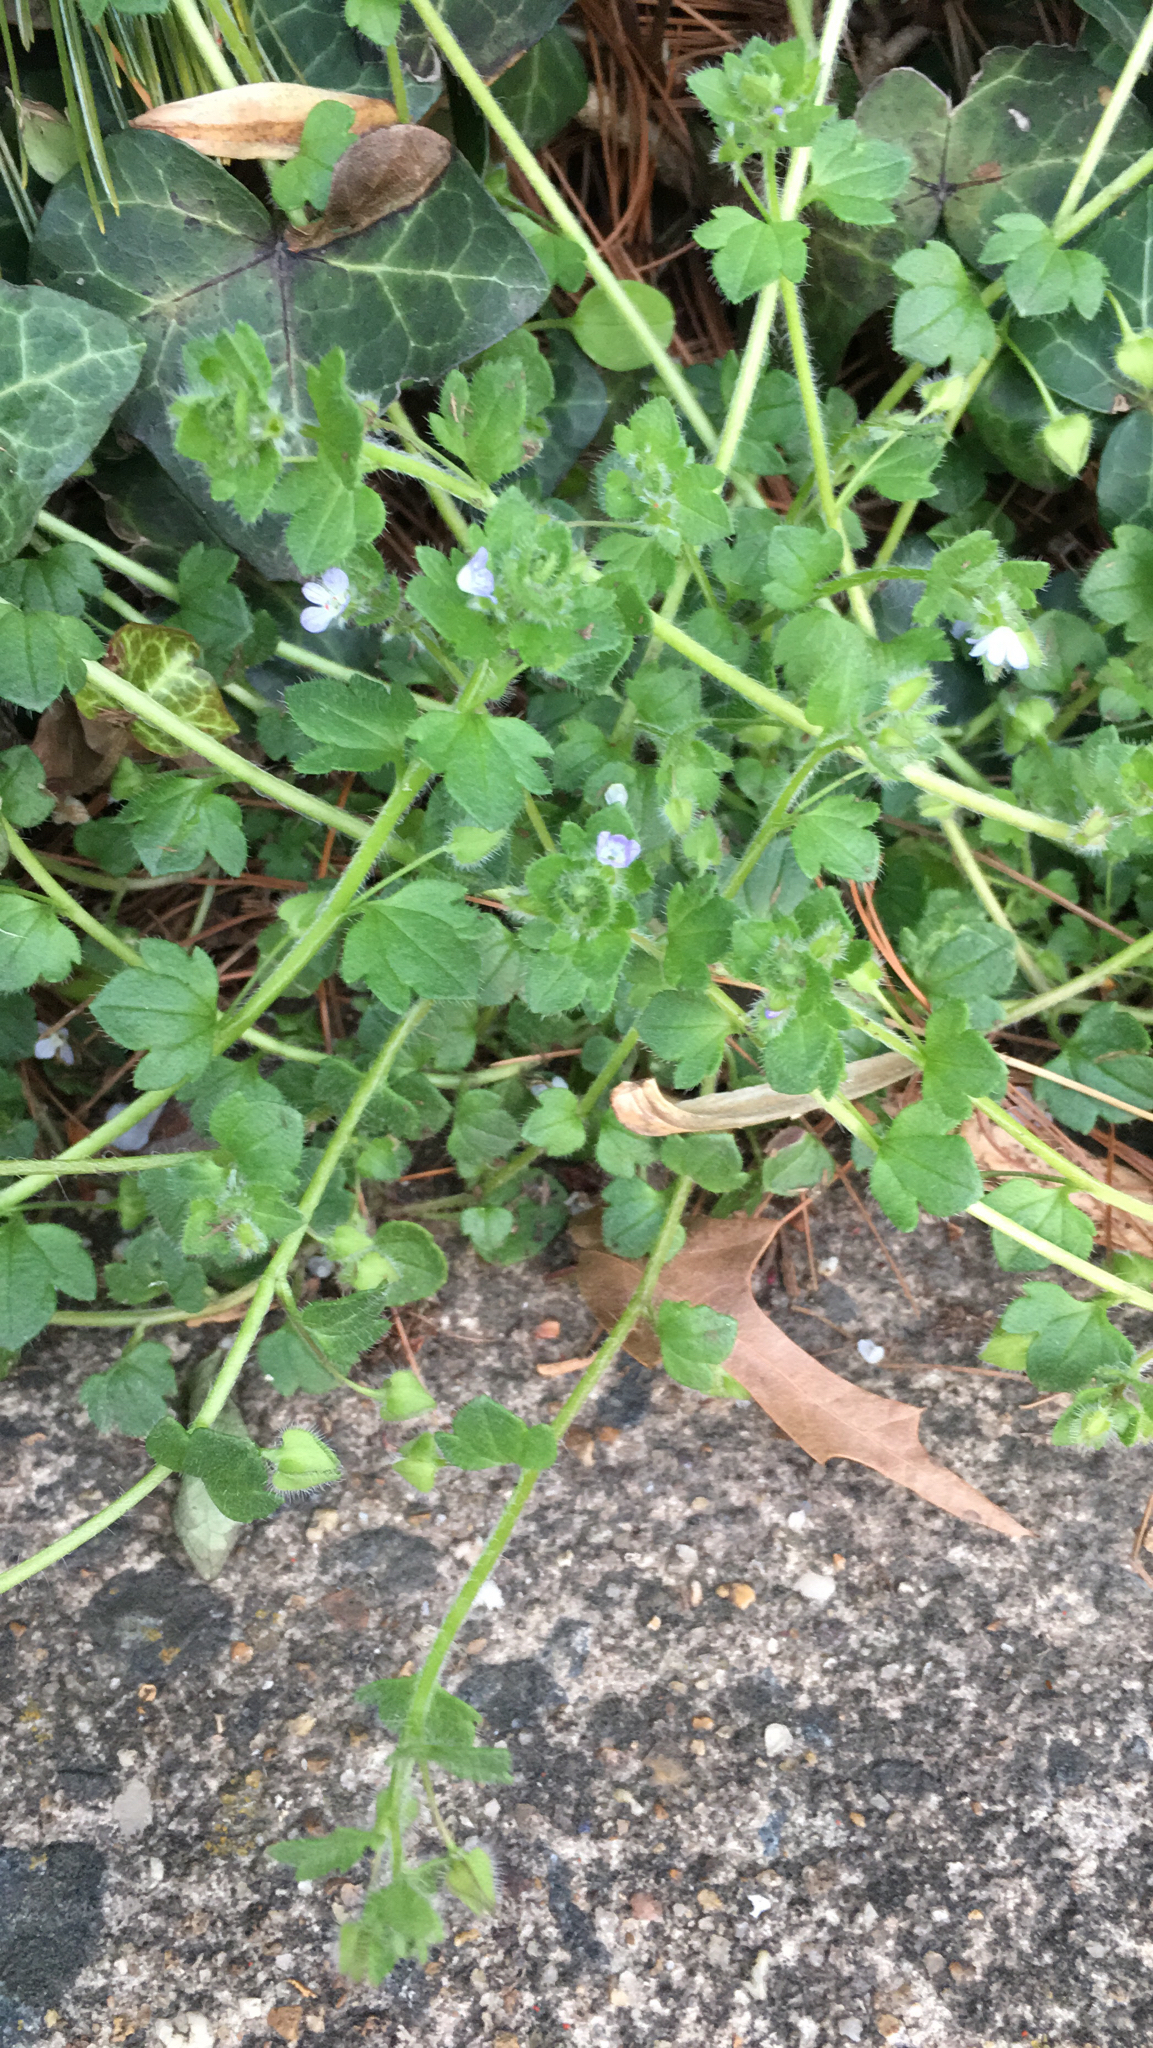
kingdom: Plantae
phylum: Tracheophyta
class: Magnoliopsida
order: Lamiales
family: Plantaginaceae
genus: Veronica
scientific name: Veronica hederifolia
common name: Ivy-leaved speedwell
